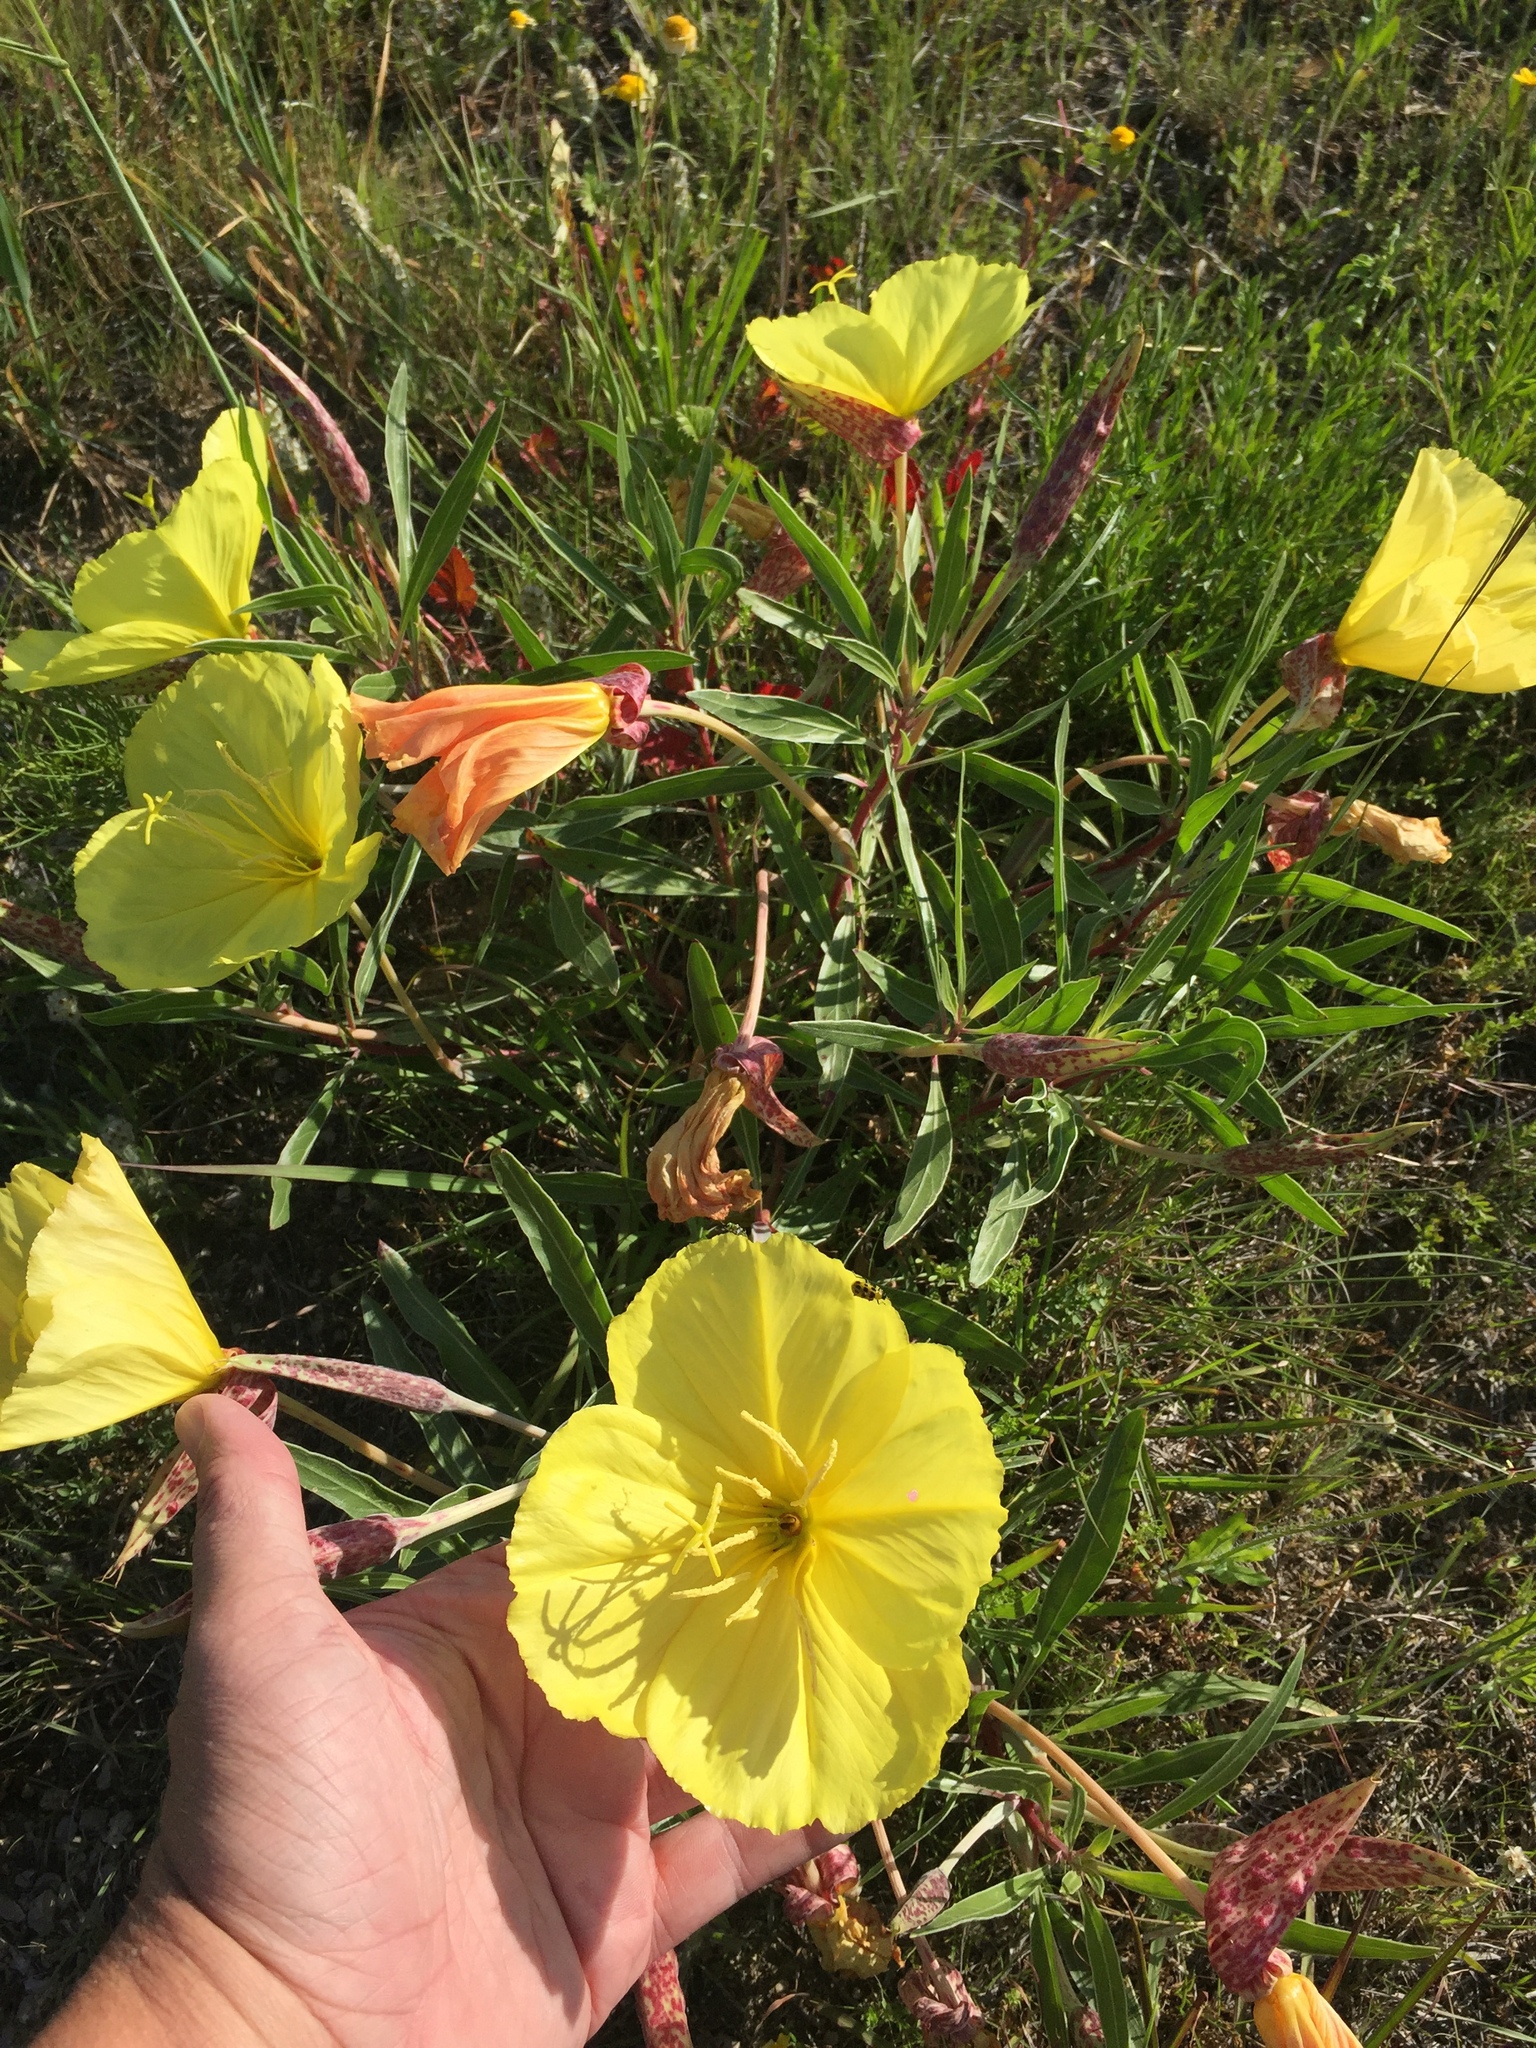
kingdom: Plantae
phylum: Tracheophyta
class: Magnoliopsida
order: Myrtales
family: Onagraceae
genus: Oenothera
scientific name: Oenothera macrocarpa
